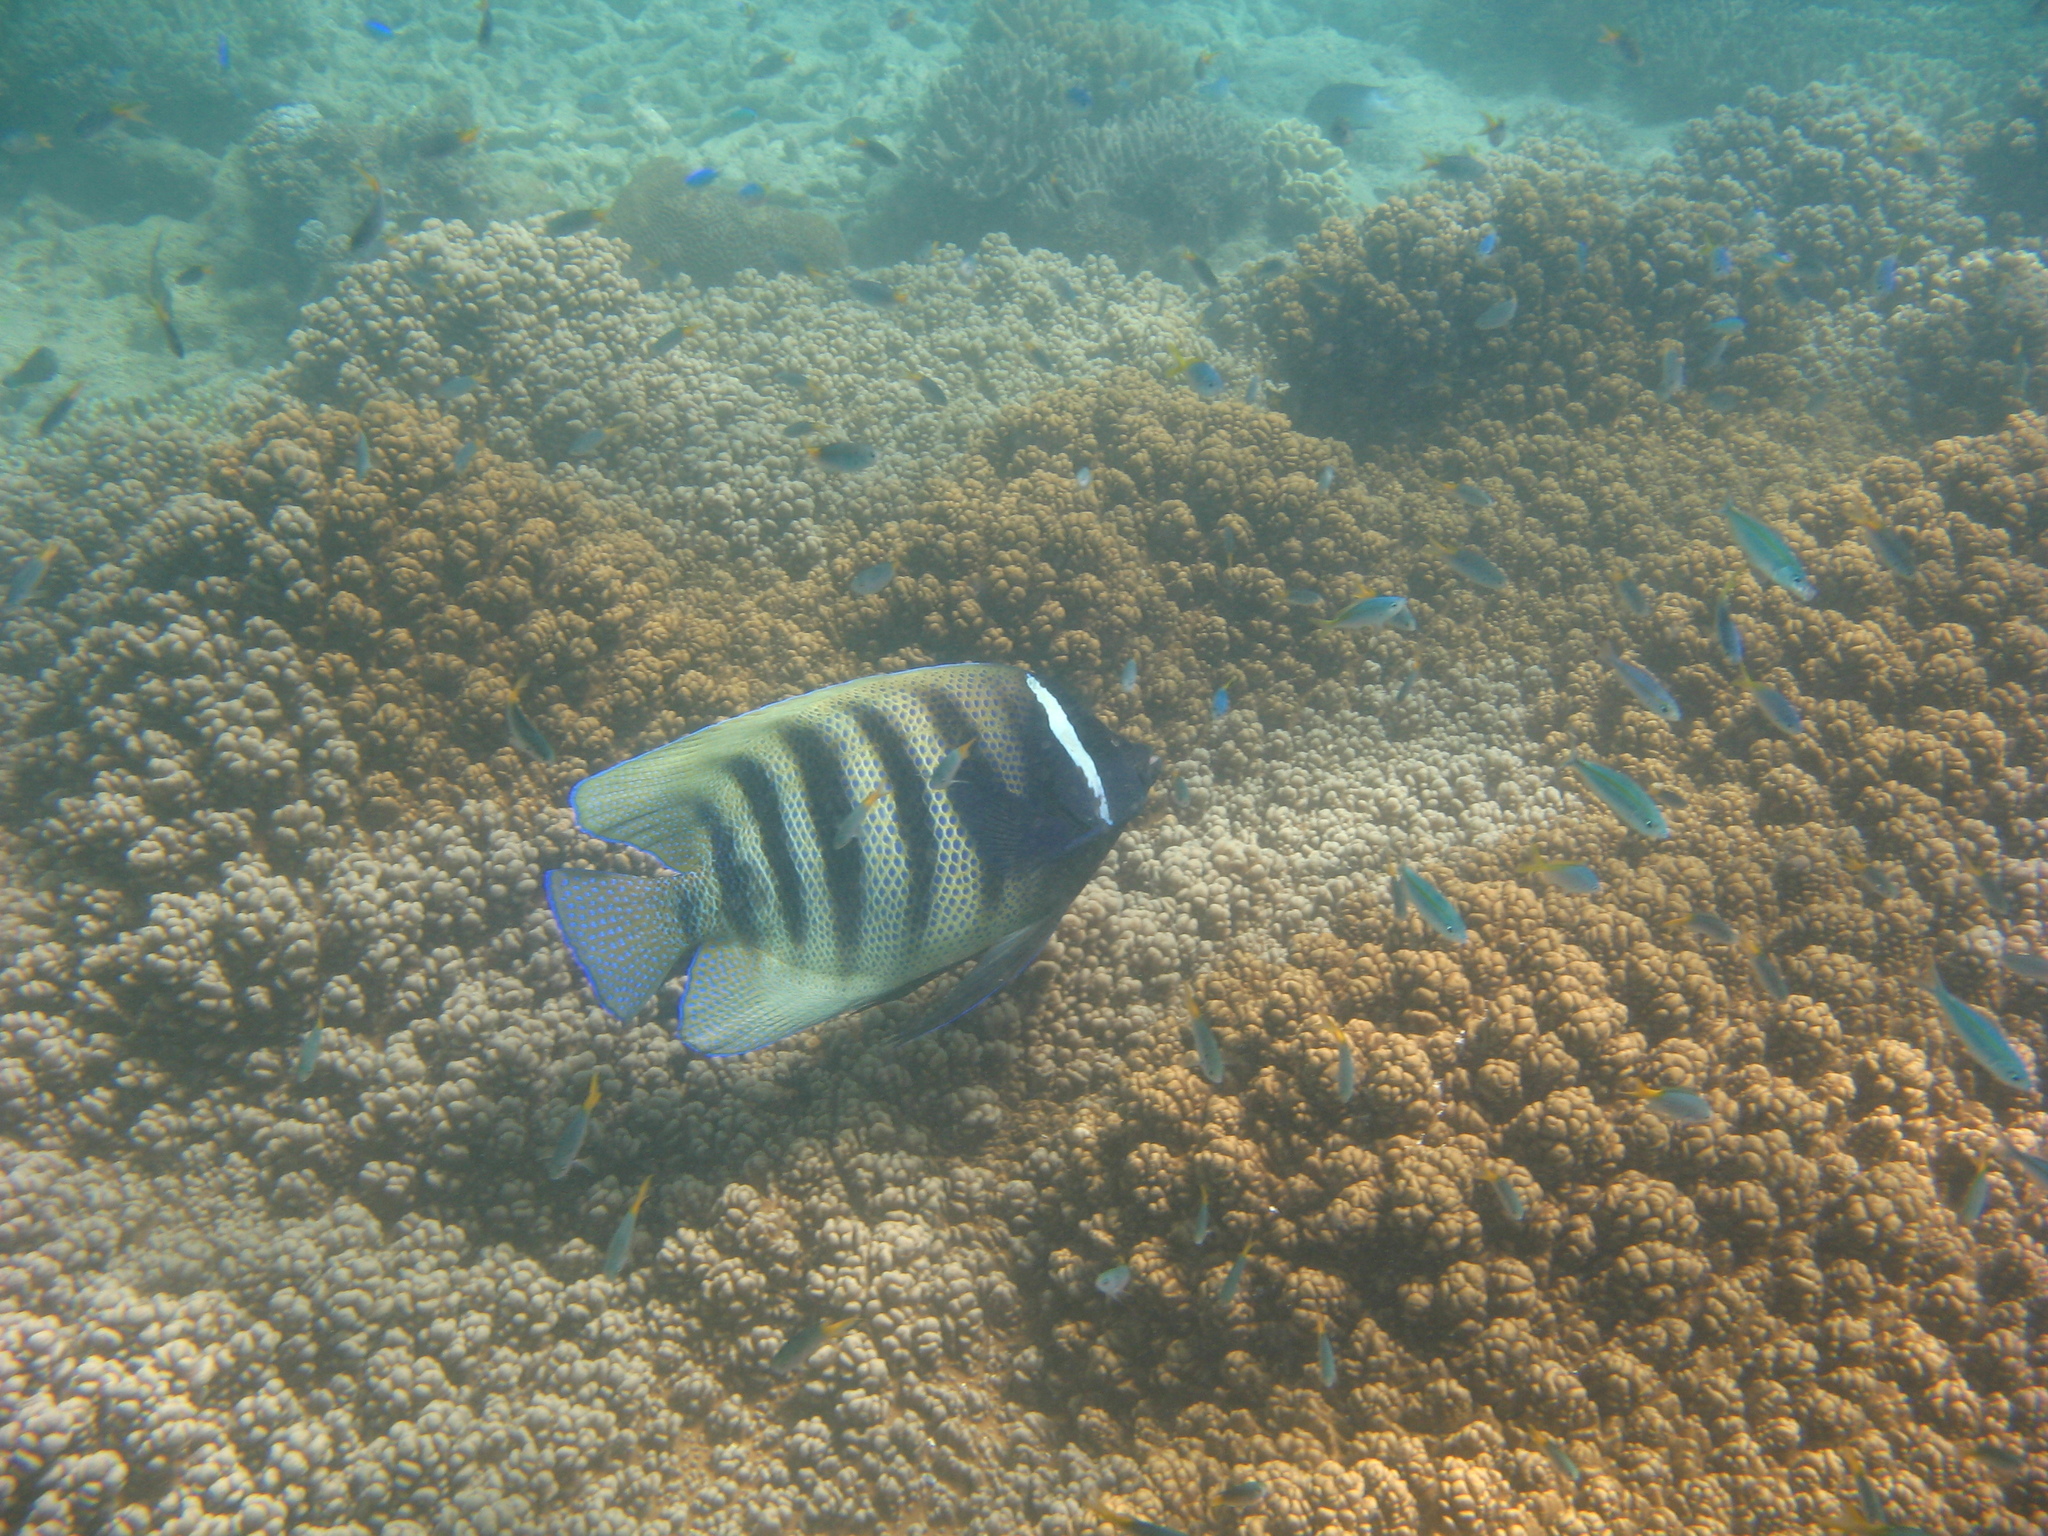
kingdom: Animalia
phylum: Chordata
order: Perciformes
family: Pomacanthidae
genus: Pomacanthus
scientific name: Pomacanthus sexstriatus
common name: Six-banded angelfish
